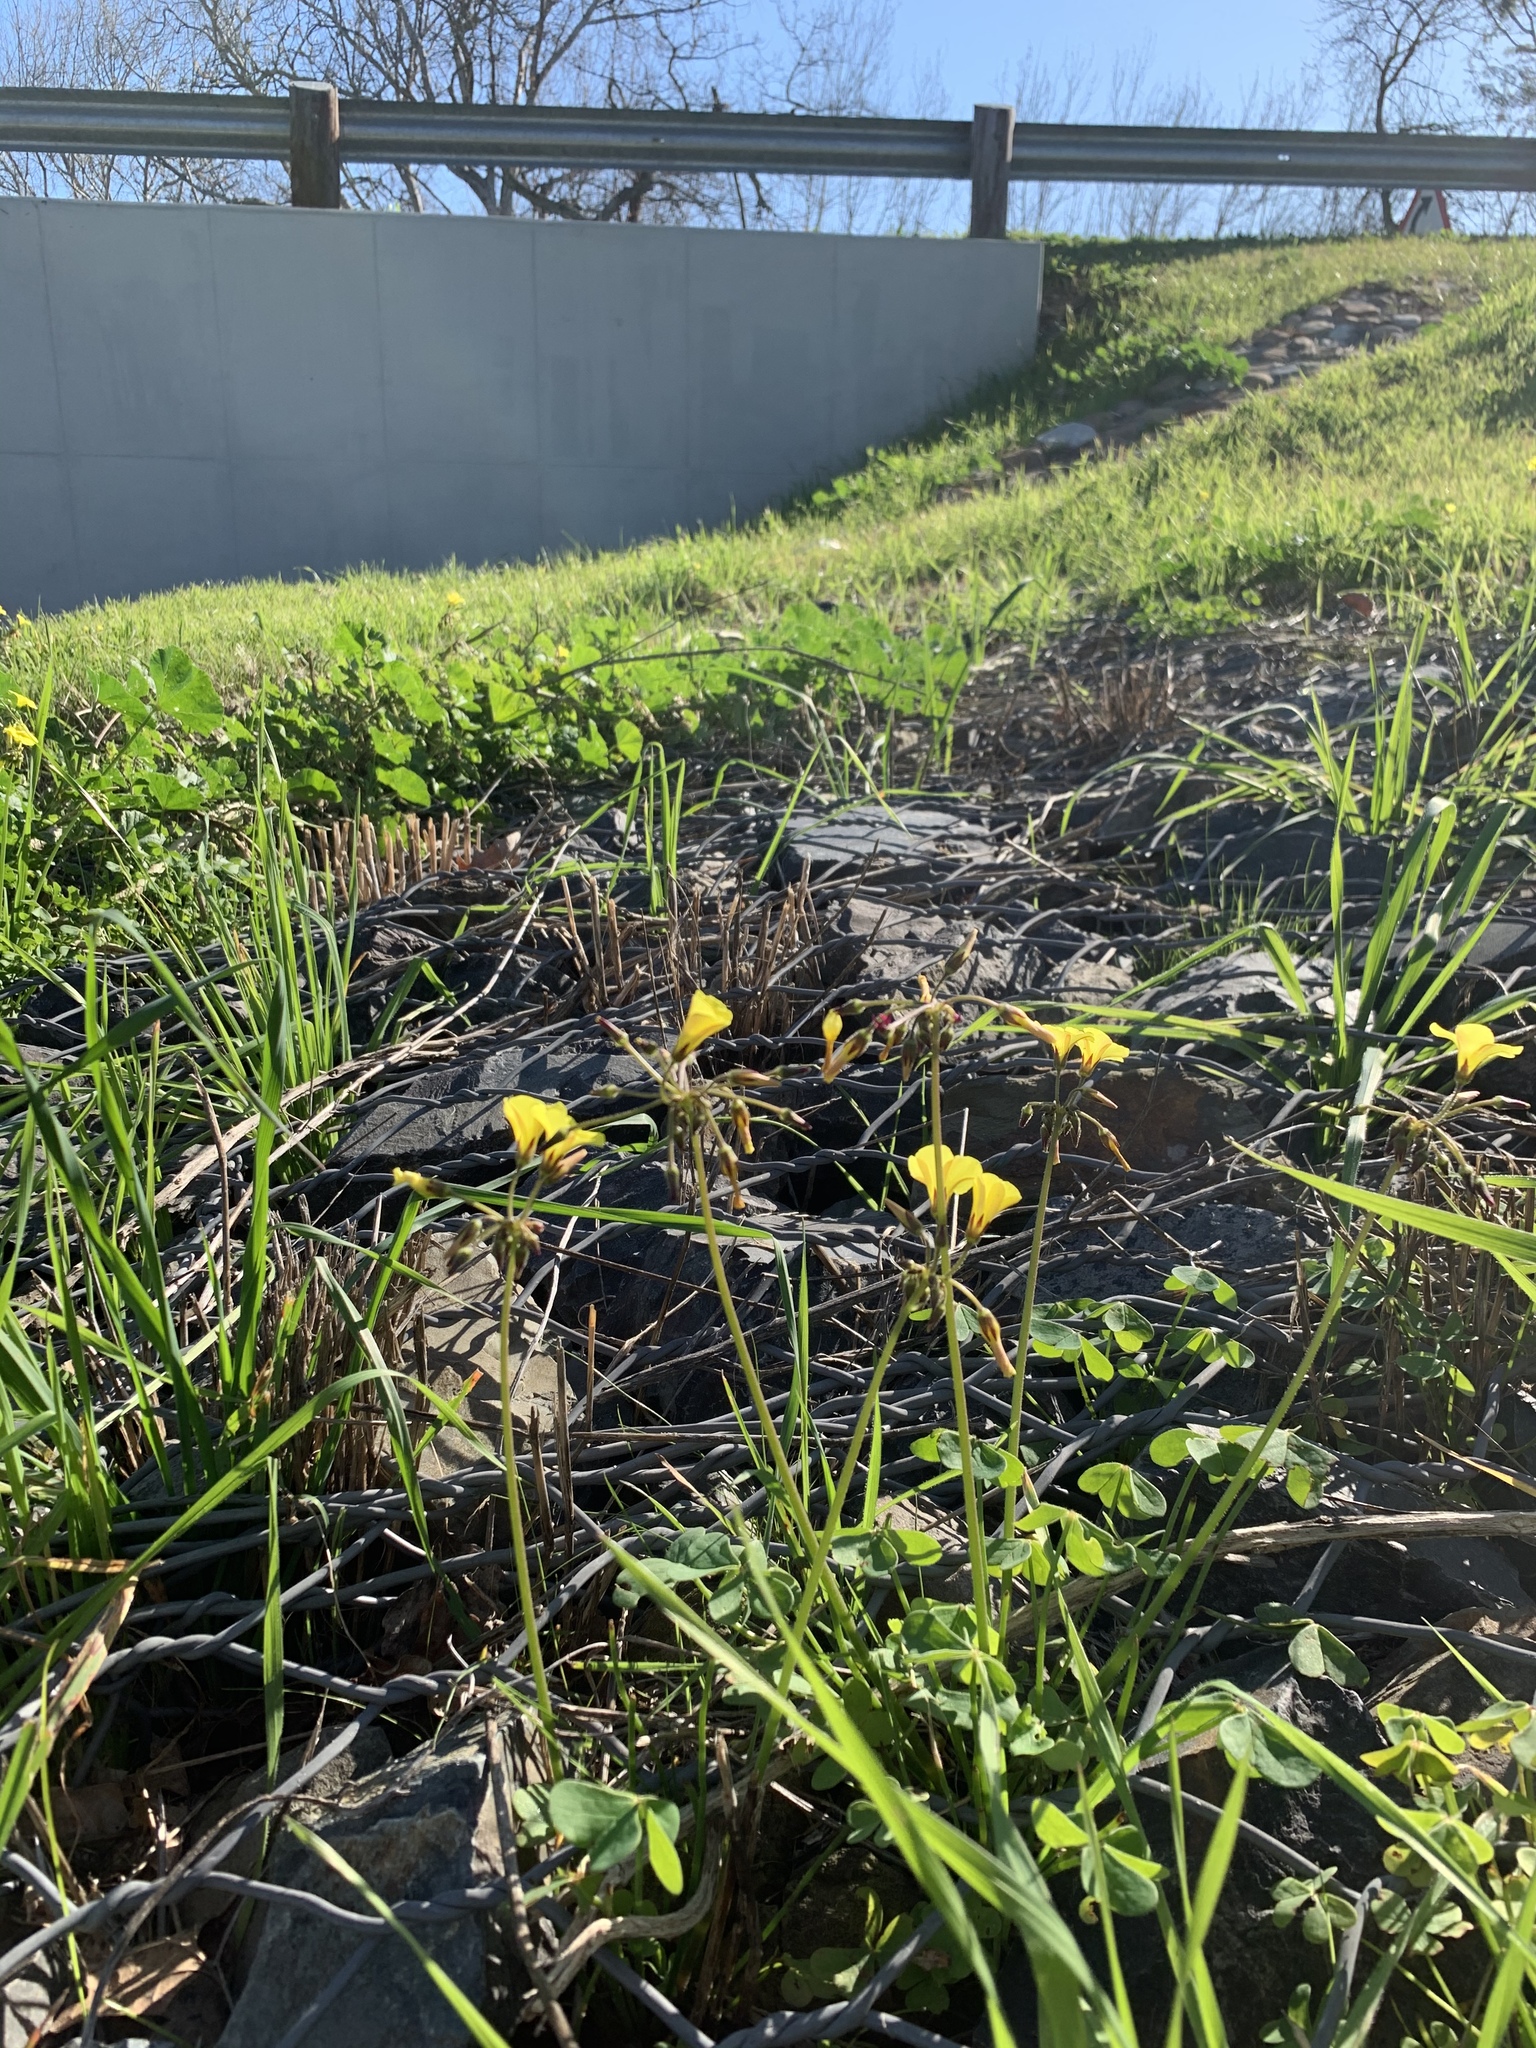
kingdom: Plantae
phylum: Tracheophyta
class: Magnoliopsida
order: Oxalidales
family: Oxalidaceae
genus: Oxalis
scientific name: Oxalis pes-caprae
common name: Bermuda-buttercup
